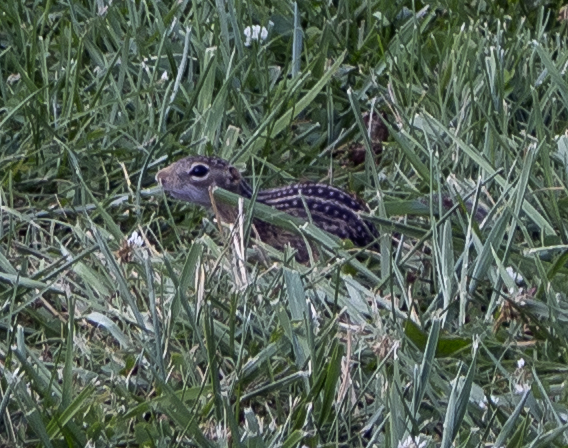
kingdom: Animalia
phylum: Chordata
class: Mammalia
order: Rodentia
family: Sciuridae
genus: Ictidomys
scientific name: Ictidomys tridecemlineatus
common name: Thirteen-lined ground squirrel
